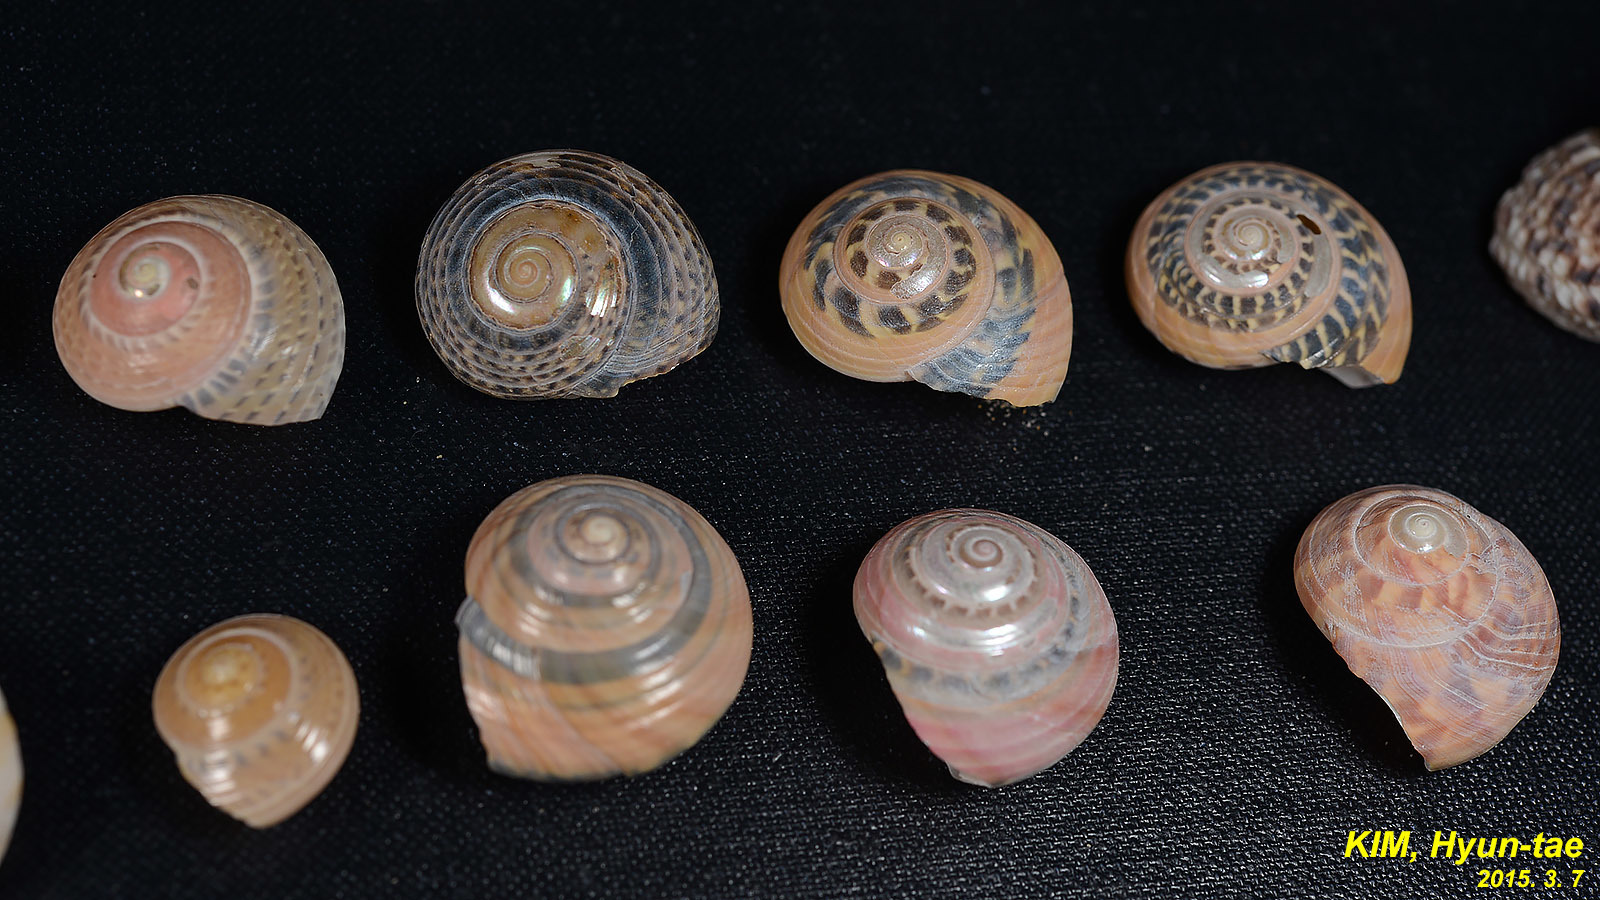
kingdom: Animalia
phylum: Mollusca
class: Gastropoda
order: Trochida
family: Trochidae
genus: Umbonium
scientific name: Umbonium costatum
